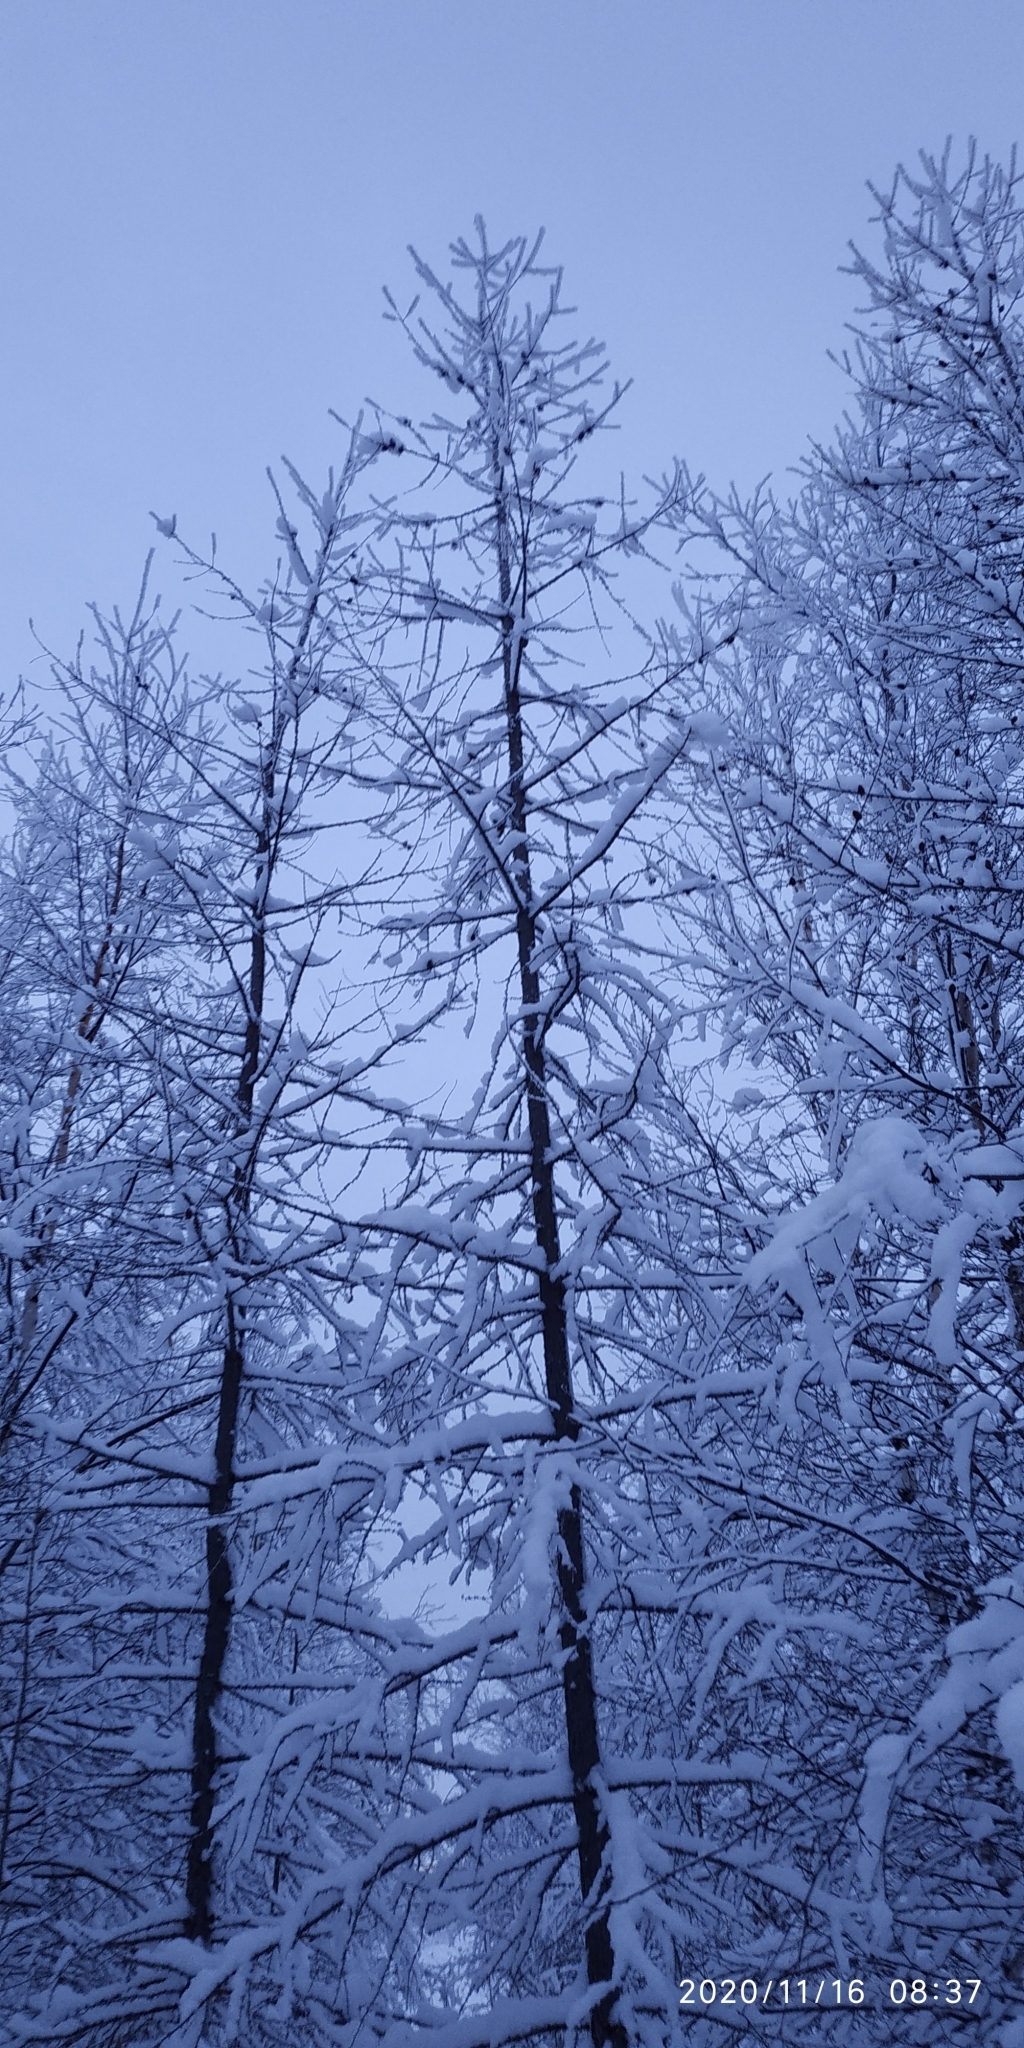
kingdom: Plantae
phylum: Tracheophyta
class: Pinopsida
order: Pinales
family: Pinaceae
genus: Larix
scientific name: Larix sibirica
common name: Siberian larch
